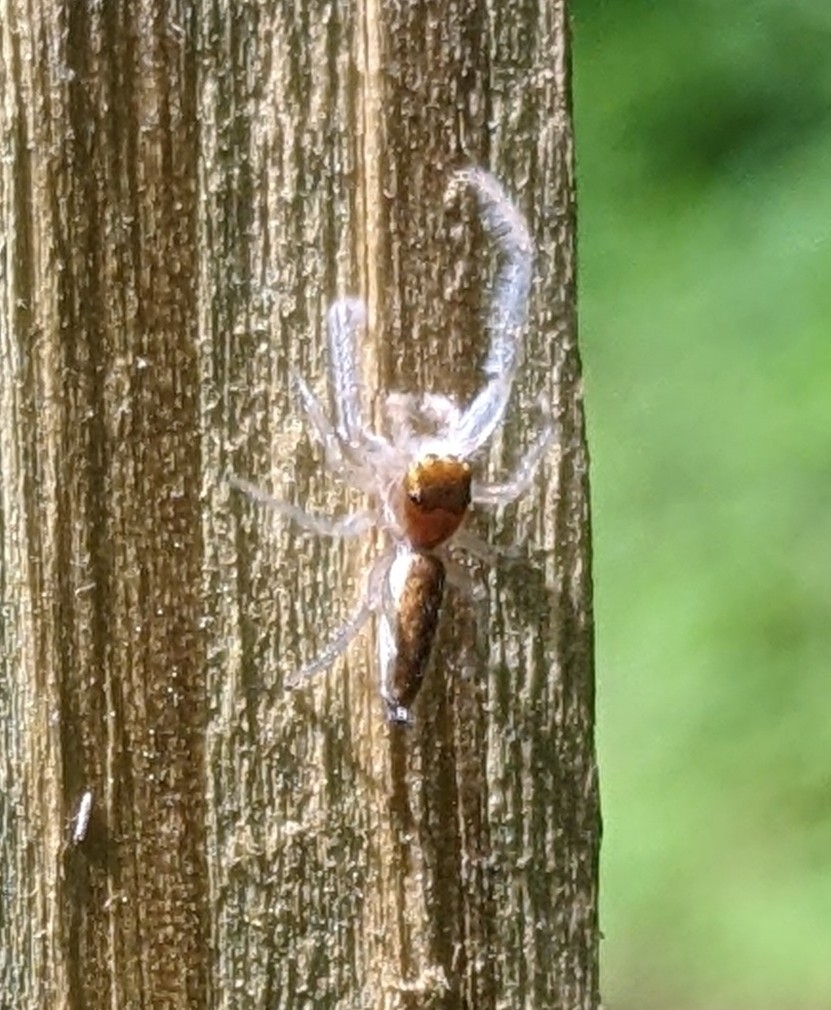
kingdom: Animalia
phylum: Arthropoda
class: Arachnida
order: Araneae
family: Salticidae
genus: Hentzia
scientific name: Hentzia mitrata
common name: White-jawed jumping spider
